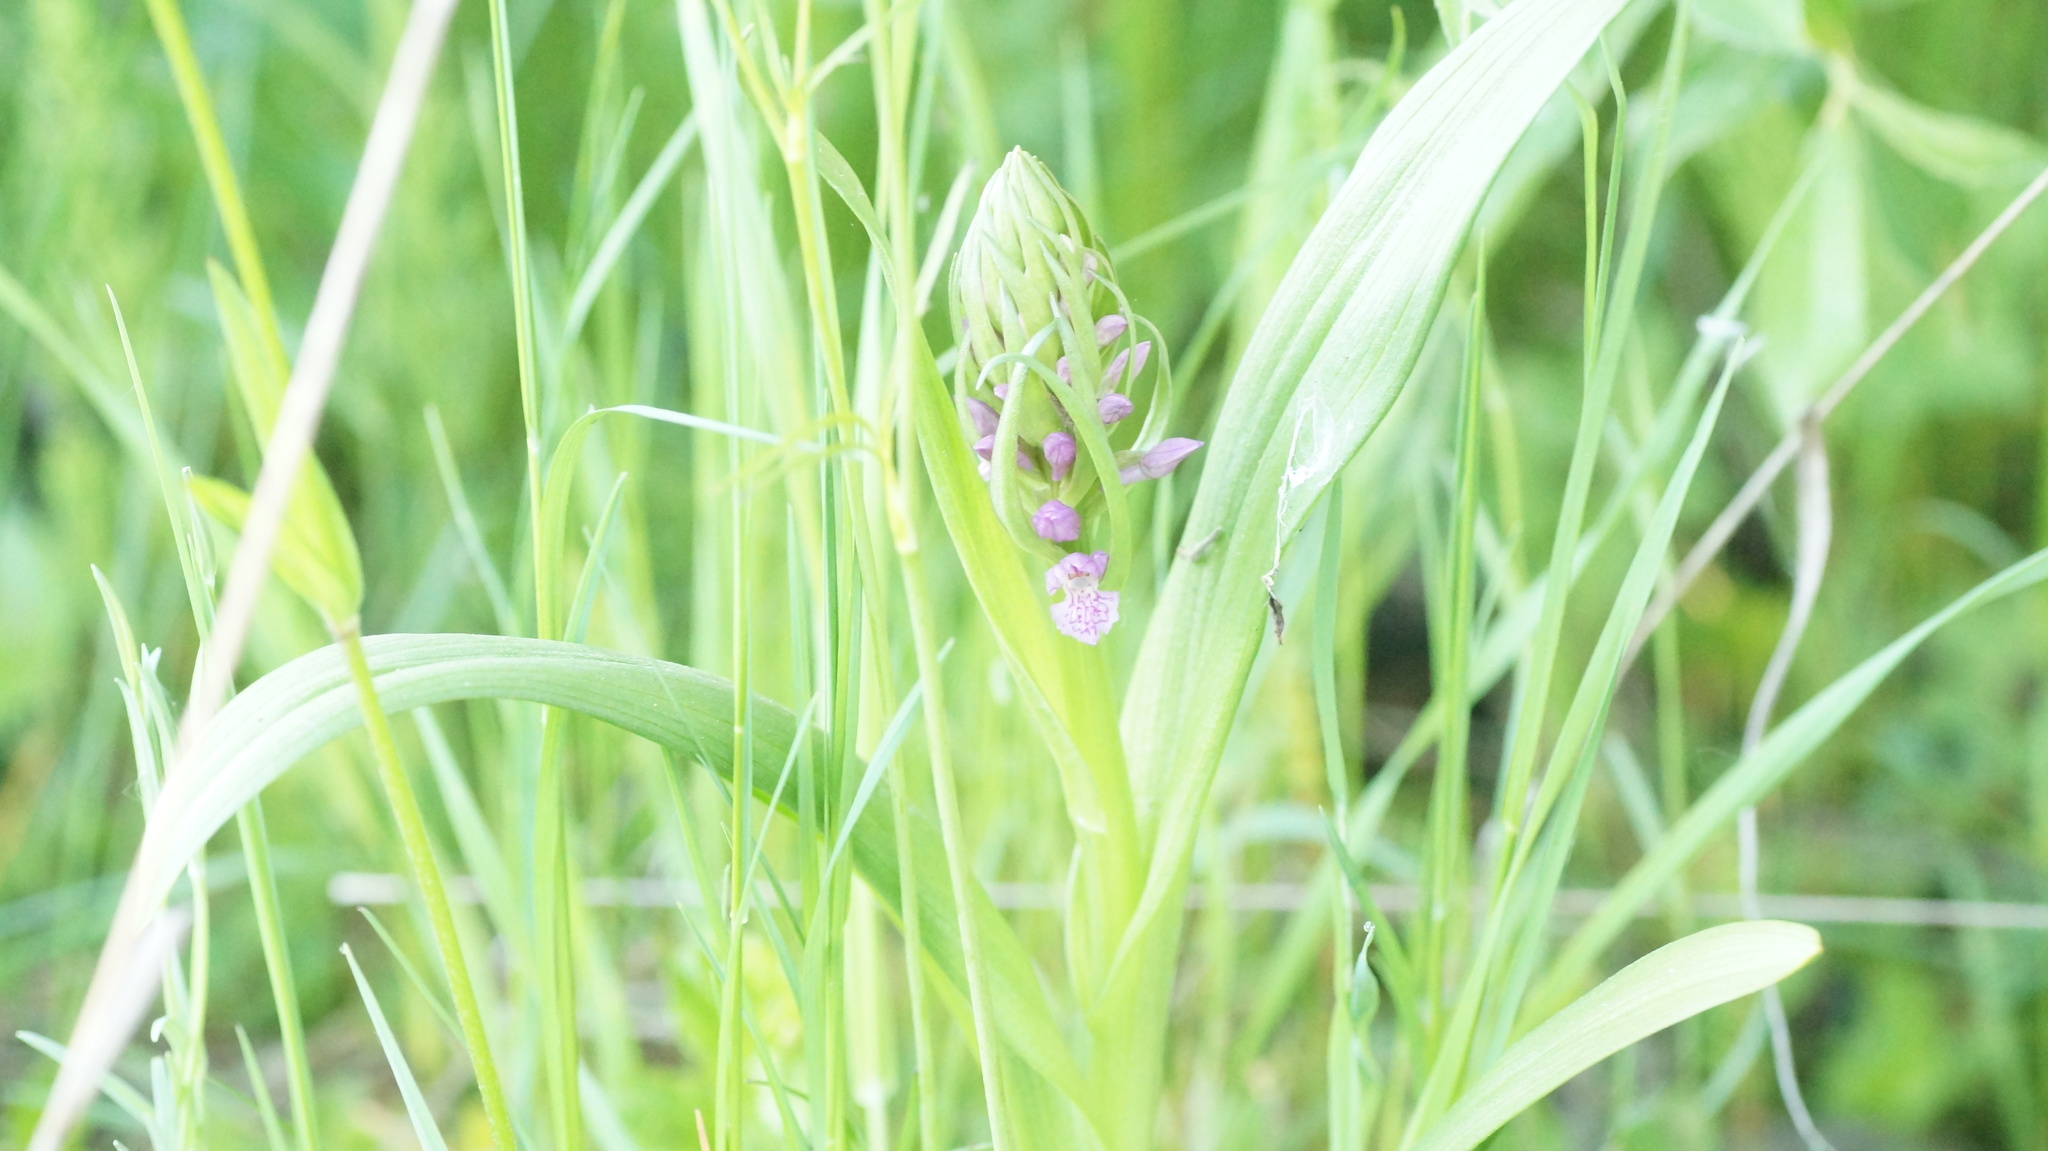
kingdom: Plantae
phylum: Tracheophyta
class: Liliopsida
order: Asparagales
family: Orchidaceae
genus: Dactylorhiza
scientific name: Dactylorhiza incarnata
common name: Early marsh-orchid
